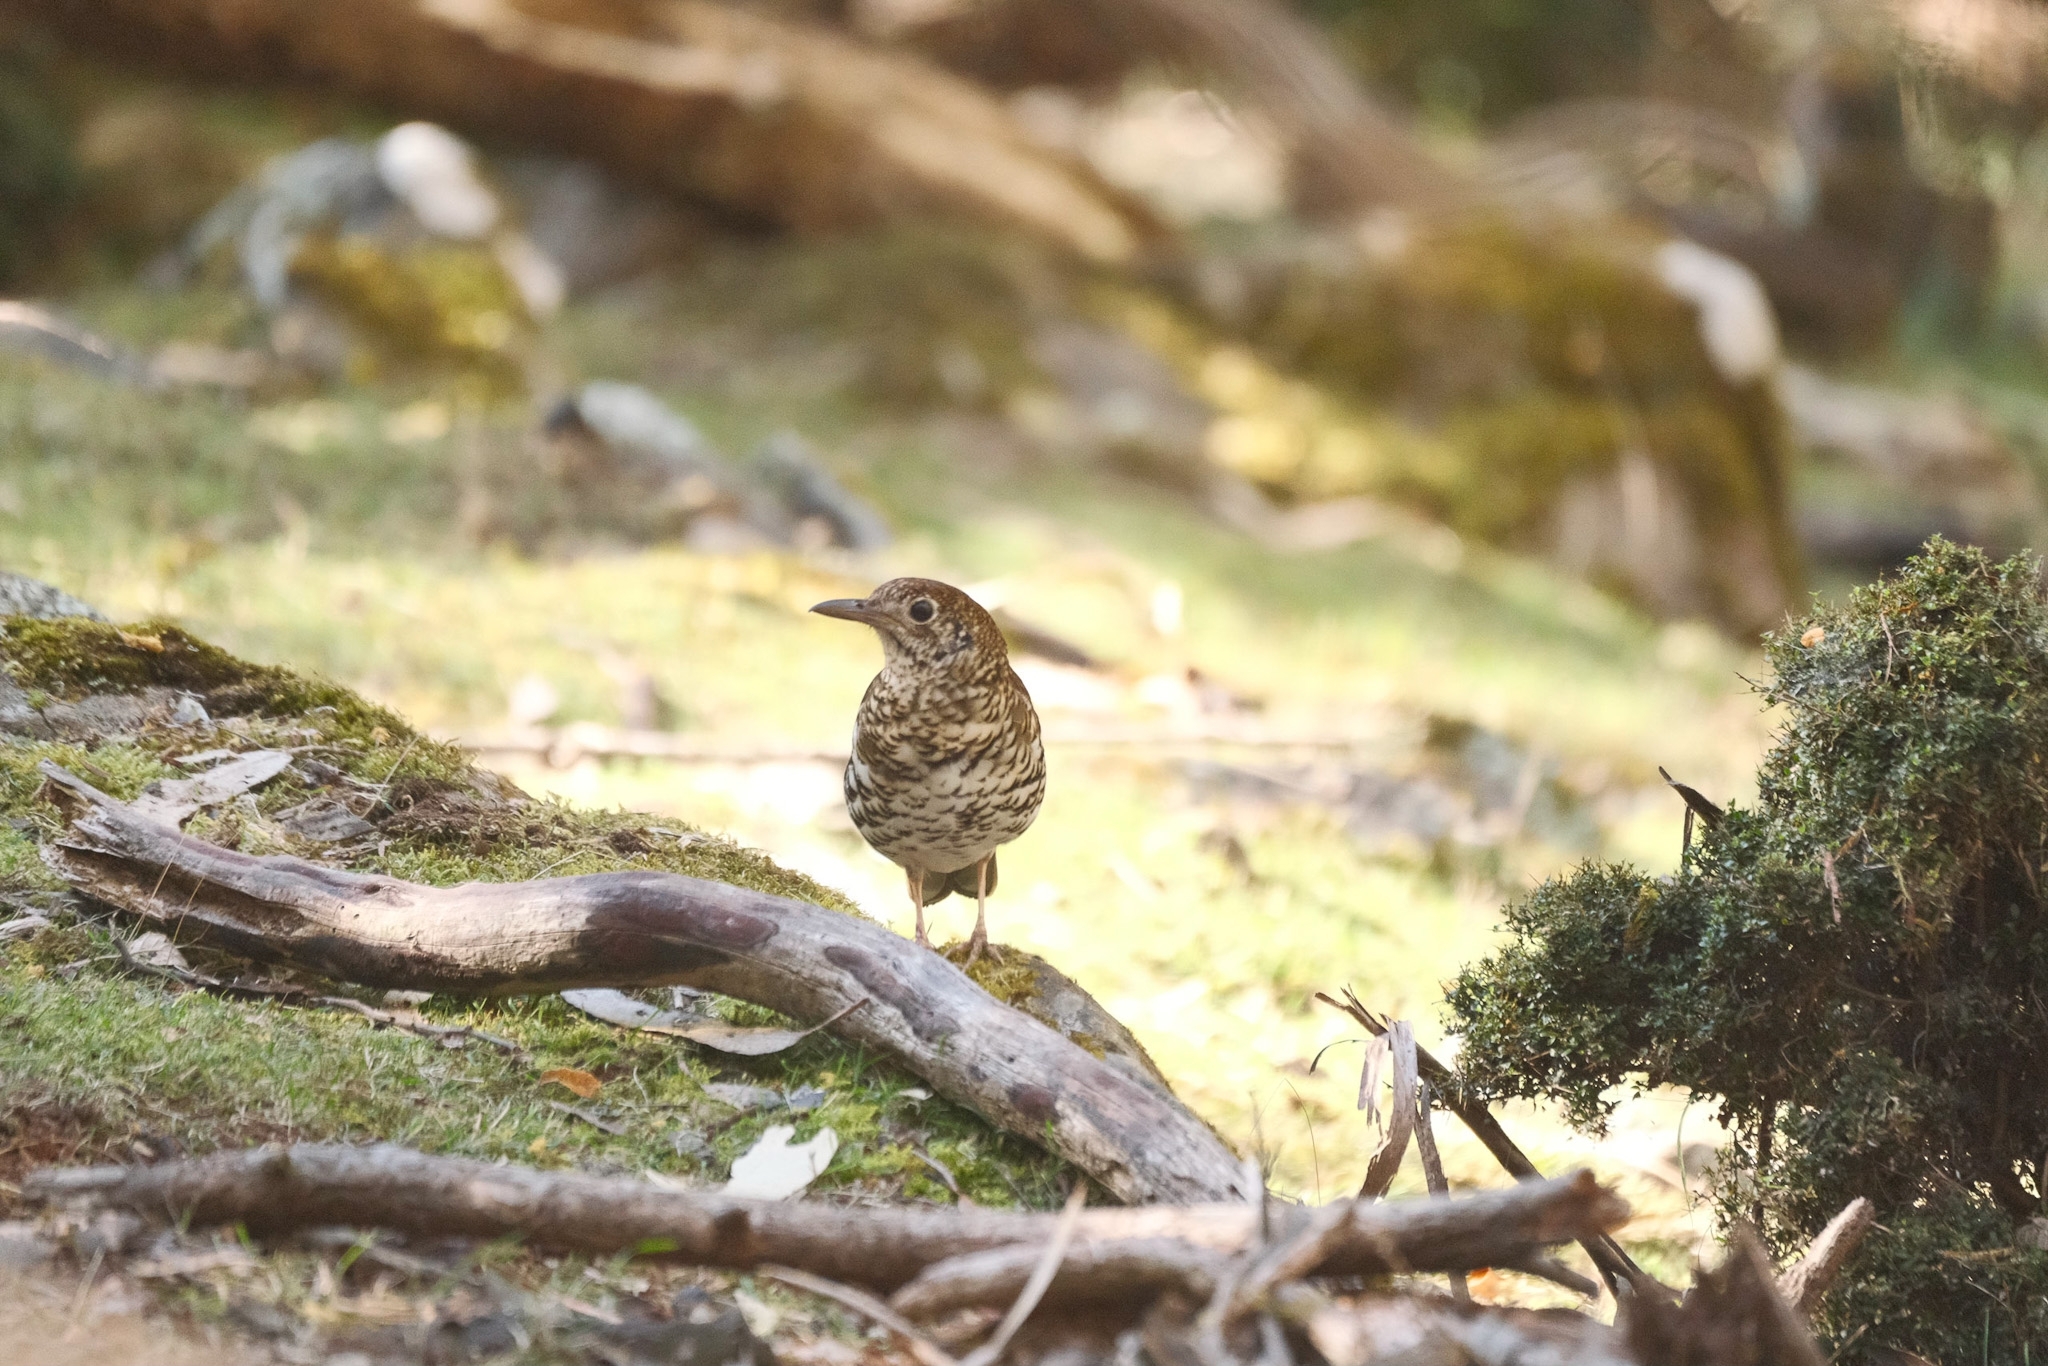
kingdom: Animalia
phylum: Chordata
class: Aves
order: Passeriformes
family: Turdidae
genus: Zoothera
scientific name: Zoothera lunulata
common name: Bassian thrush
